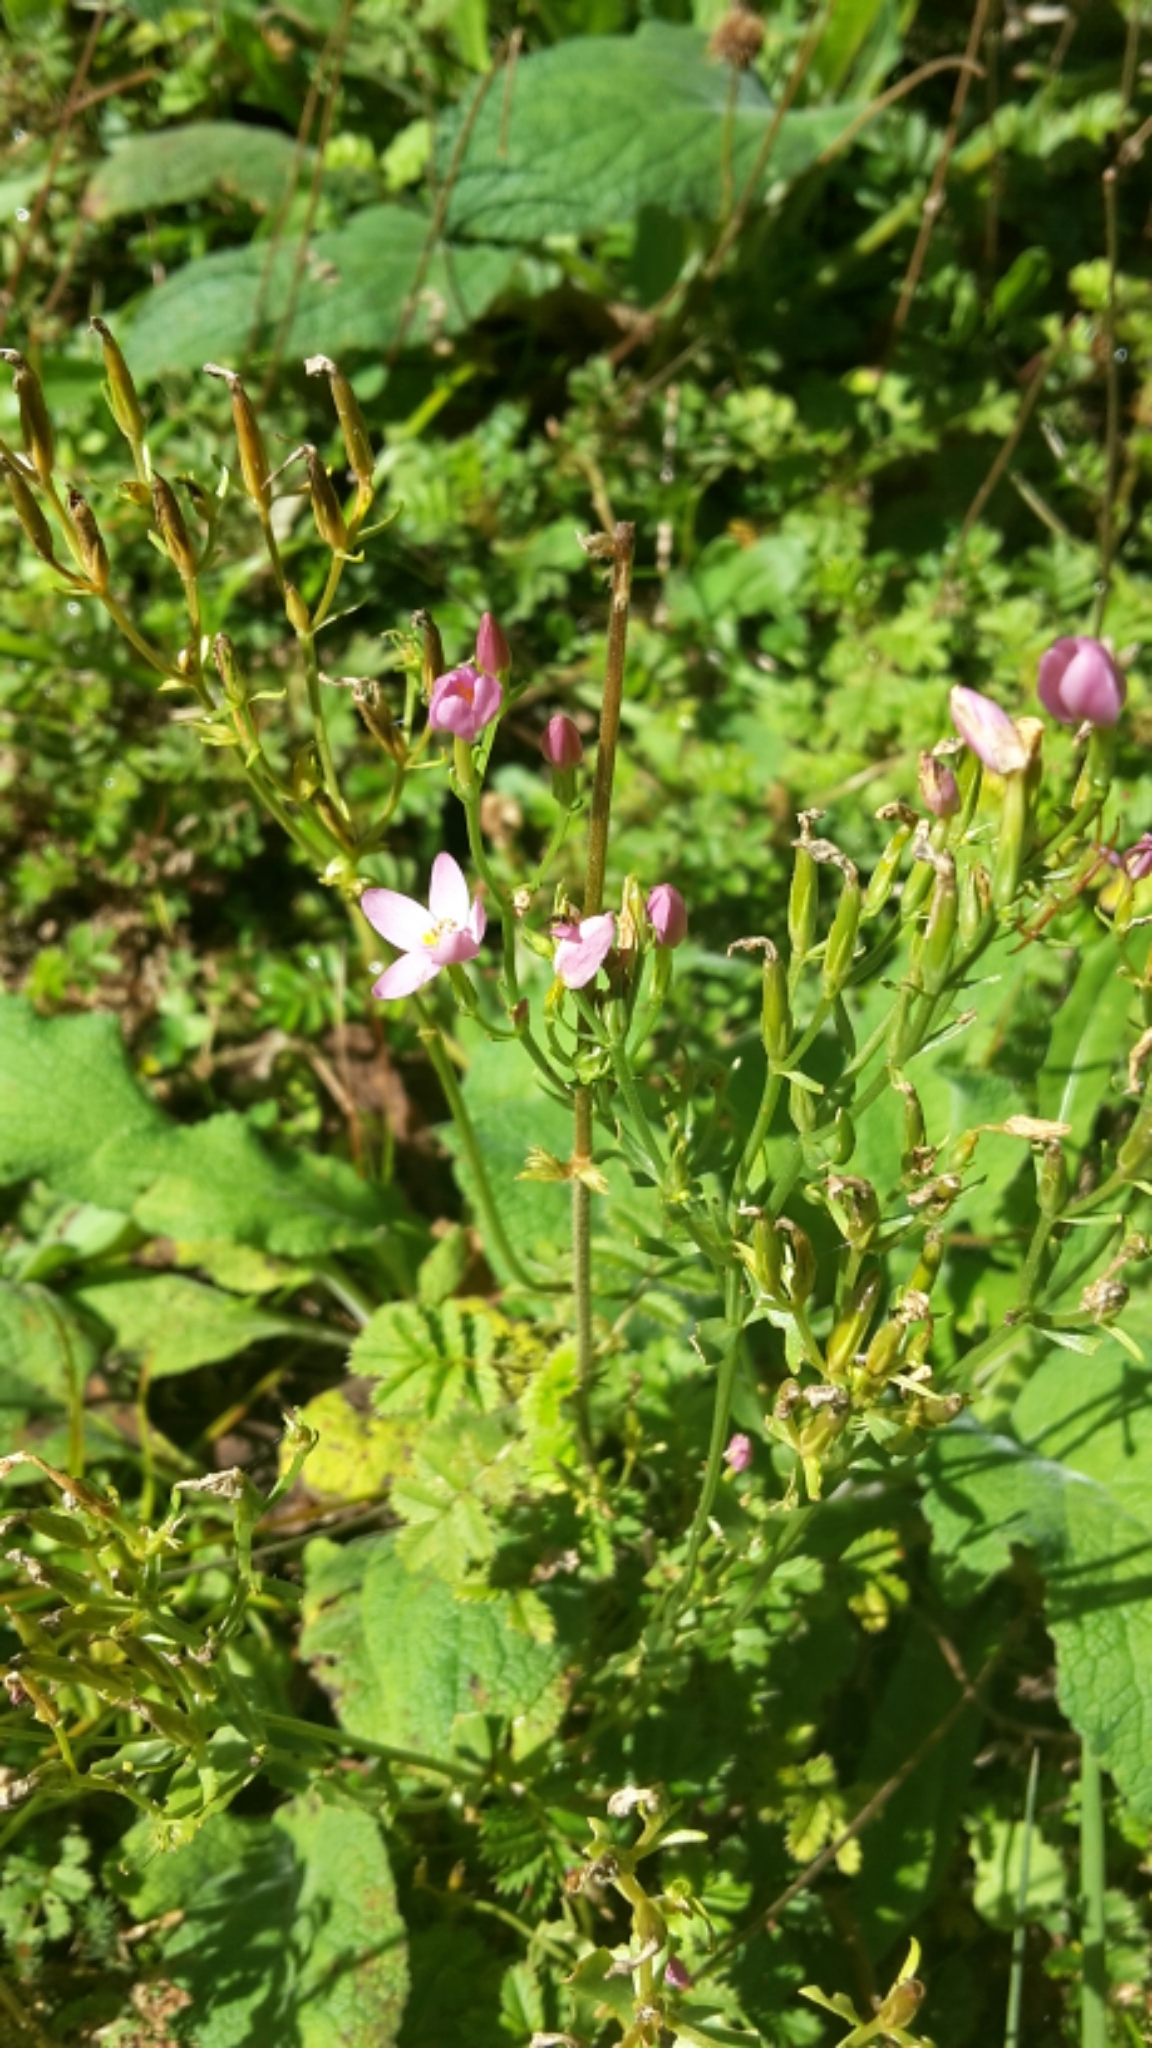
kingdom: Plantae
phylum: Tracheophyta
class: Magnoliopsida
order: Gentianales
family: Gentianaceae
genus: Centaurium
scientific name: Centaurium erythraea
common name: Common centaury
